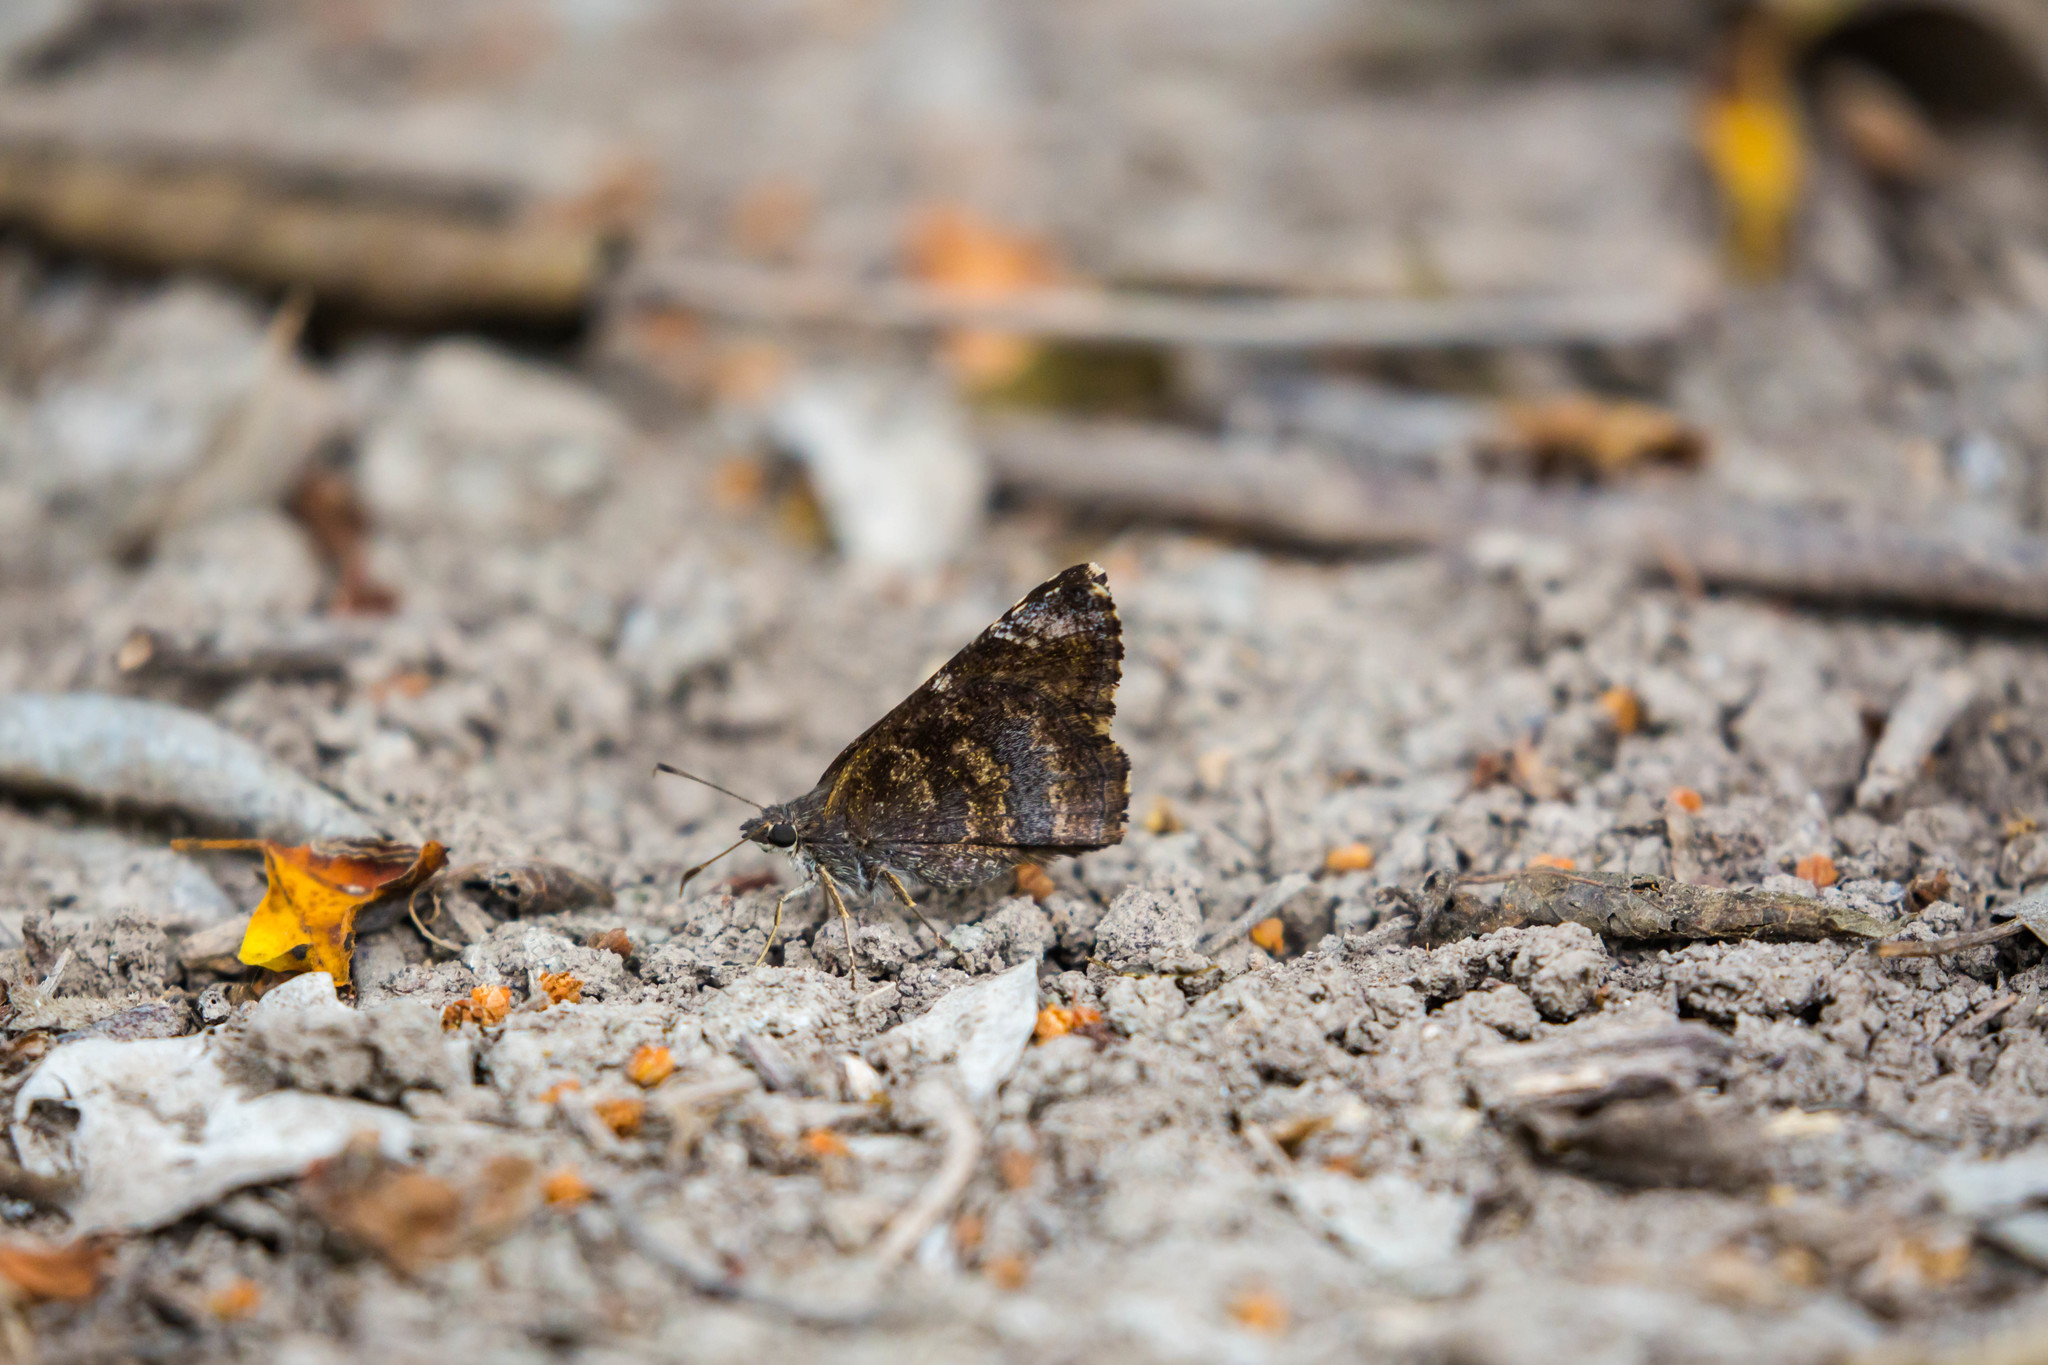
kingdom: Animalia
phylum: Arthropoda
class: Insecta
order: Lepidoptera
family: Hesperiidae
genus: Caicella
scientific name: Caicella calchas
